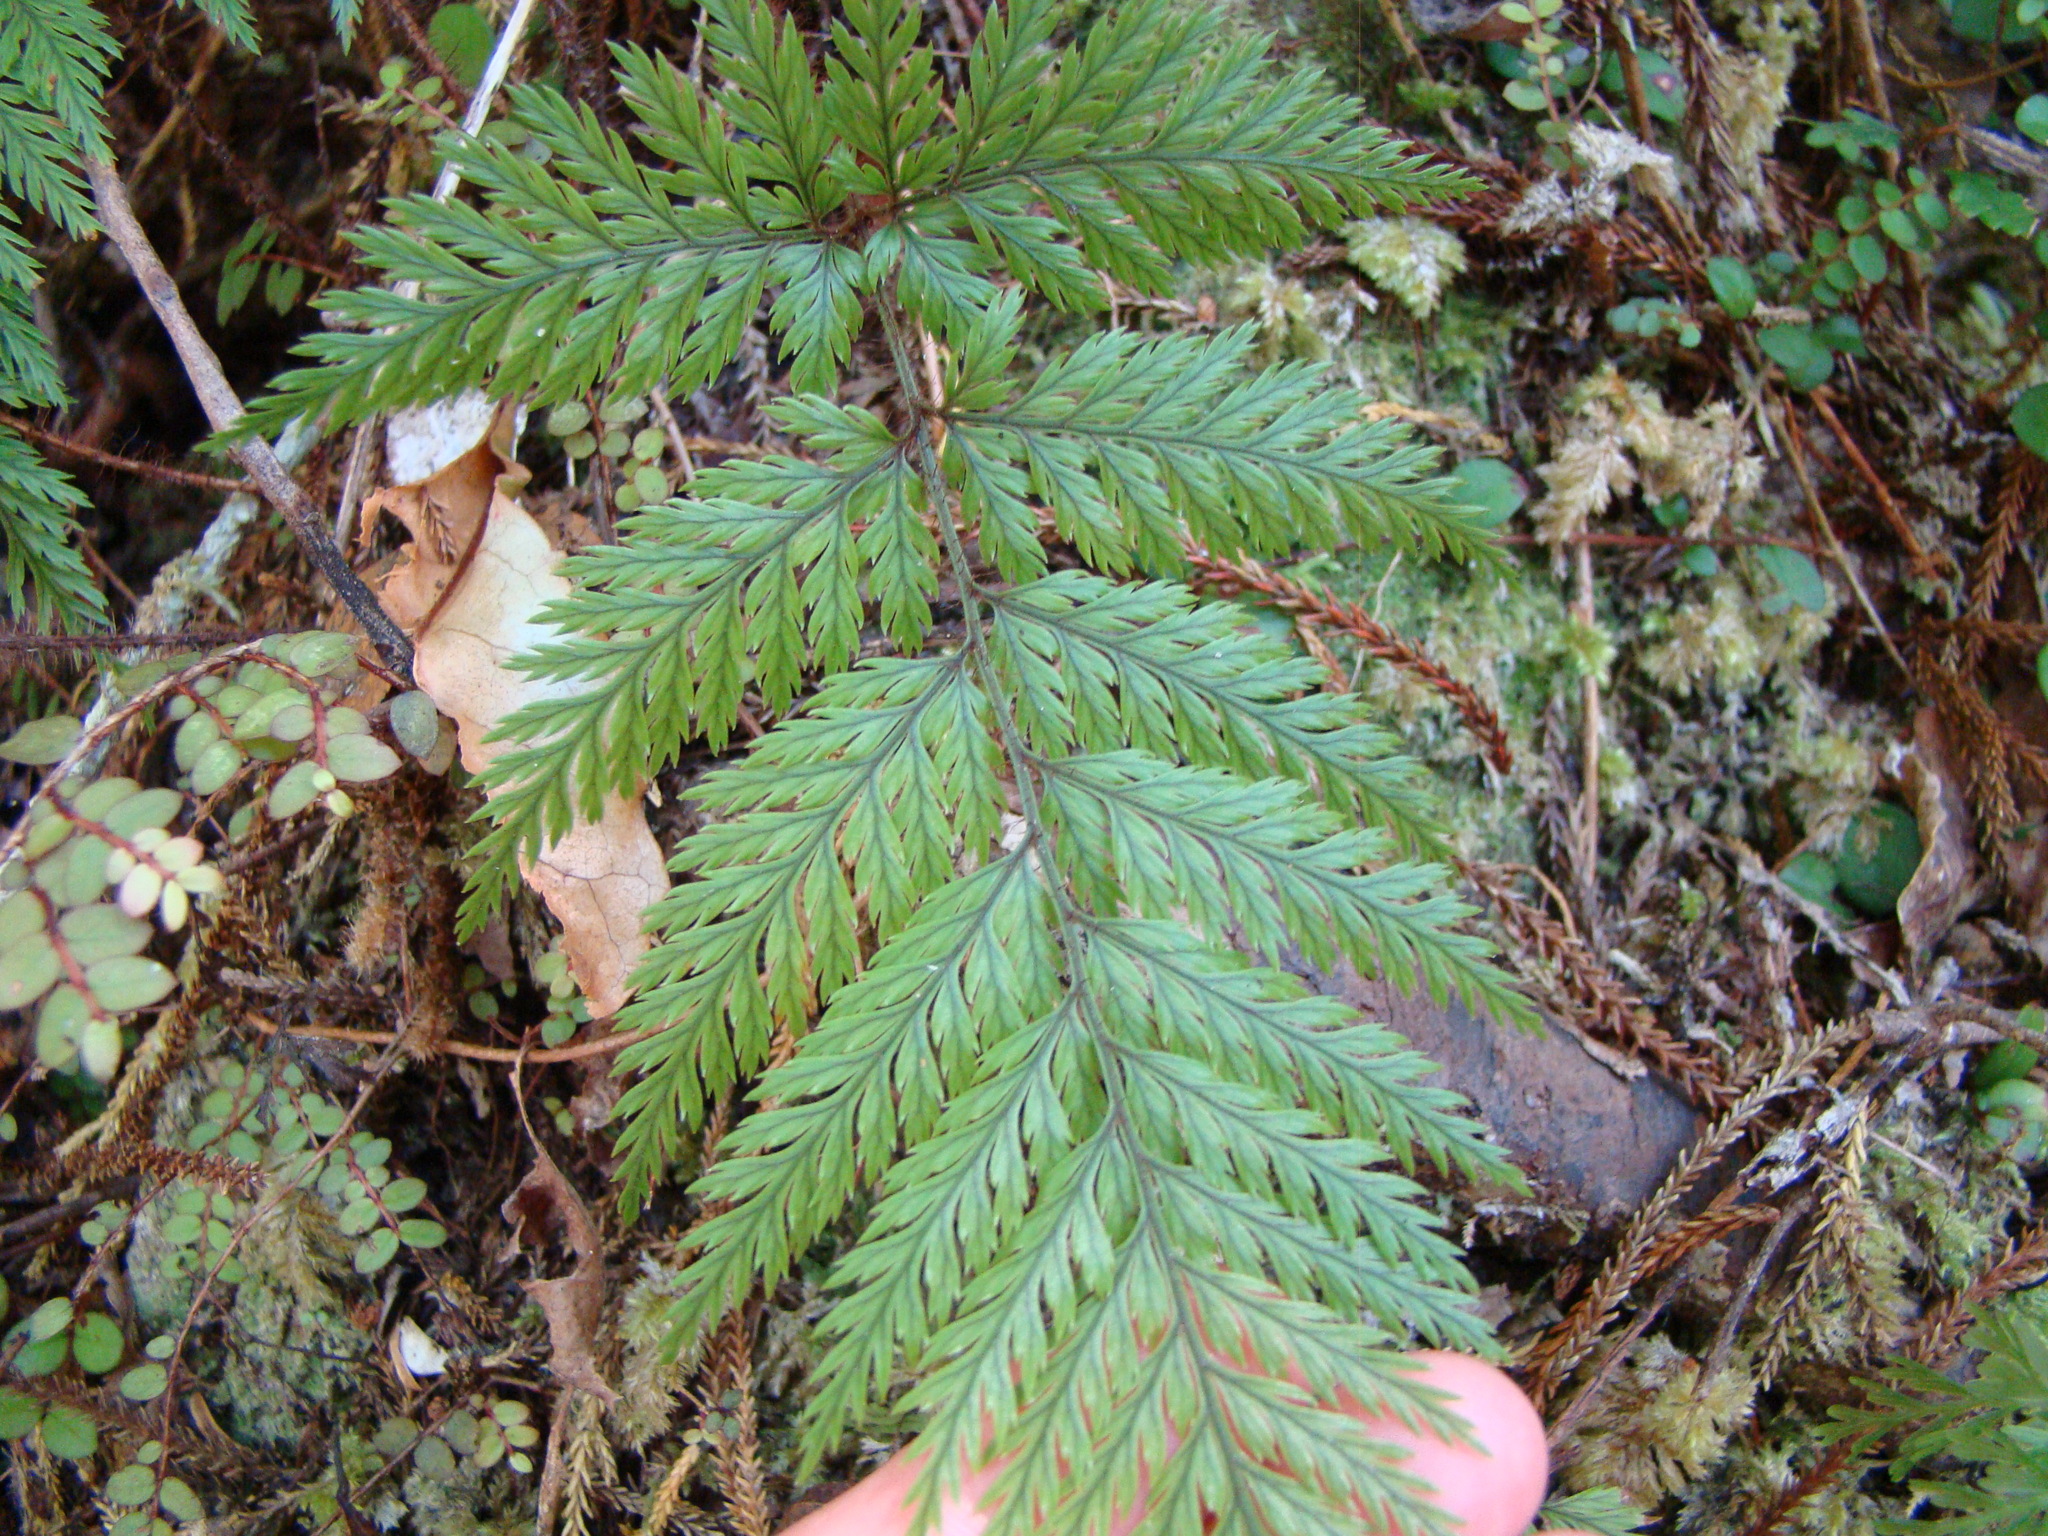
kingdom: Plantae
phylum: Tracheophyta
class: Polypodiopsida
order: Polypodiales
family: Dryopteridaceae
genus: Lastreopsis
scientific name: Lastreopsis hispida
